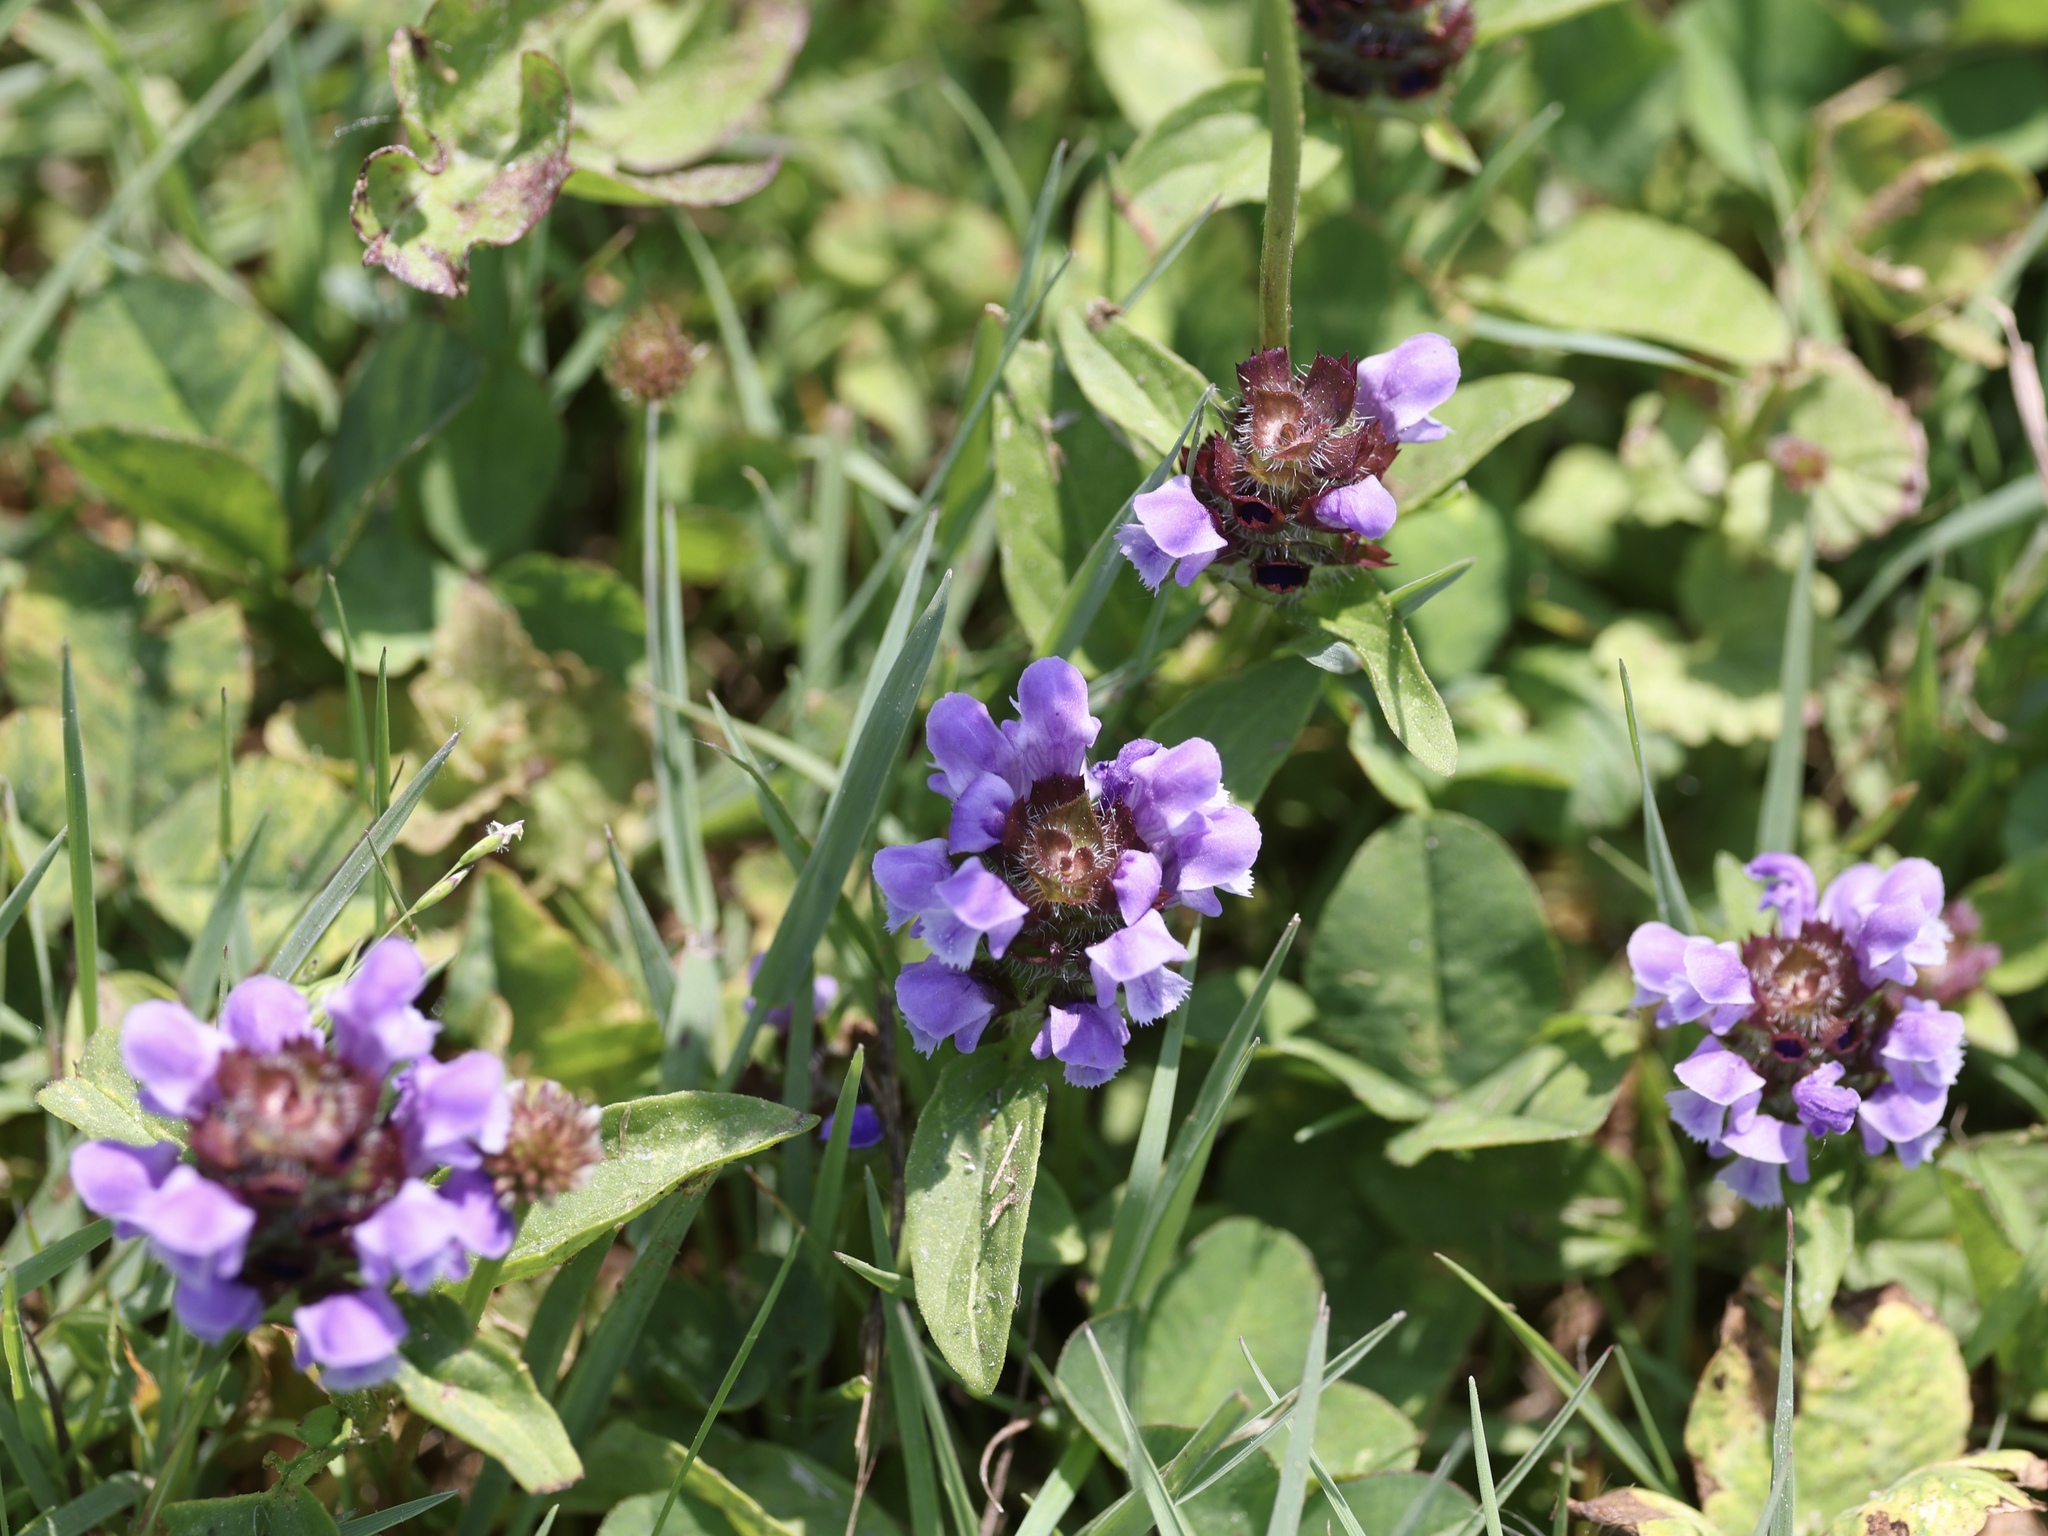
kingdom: Plantae
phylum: Tracheophyta
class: Magnoliopsida
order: Lamiales
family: Lamiaceae
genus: Prunella
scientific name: Prunella vulgaris
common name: Heal-all
